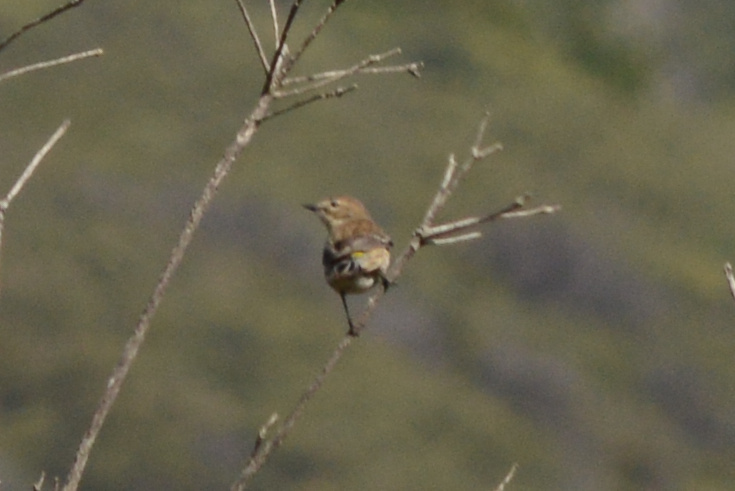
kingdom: Animalia
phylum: Chordata
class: Aves
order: Passeriformes
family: Parulidae
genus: Setophaga
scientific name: Setophaga coronata
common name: Myrtle warbler
